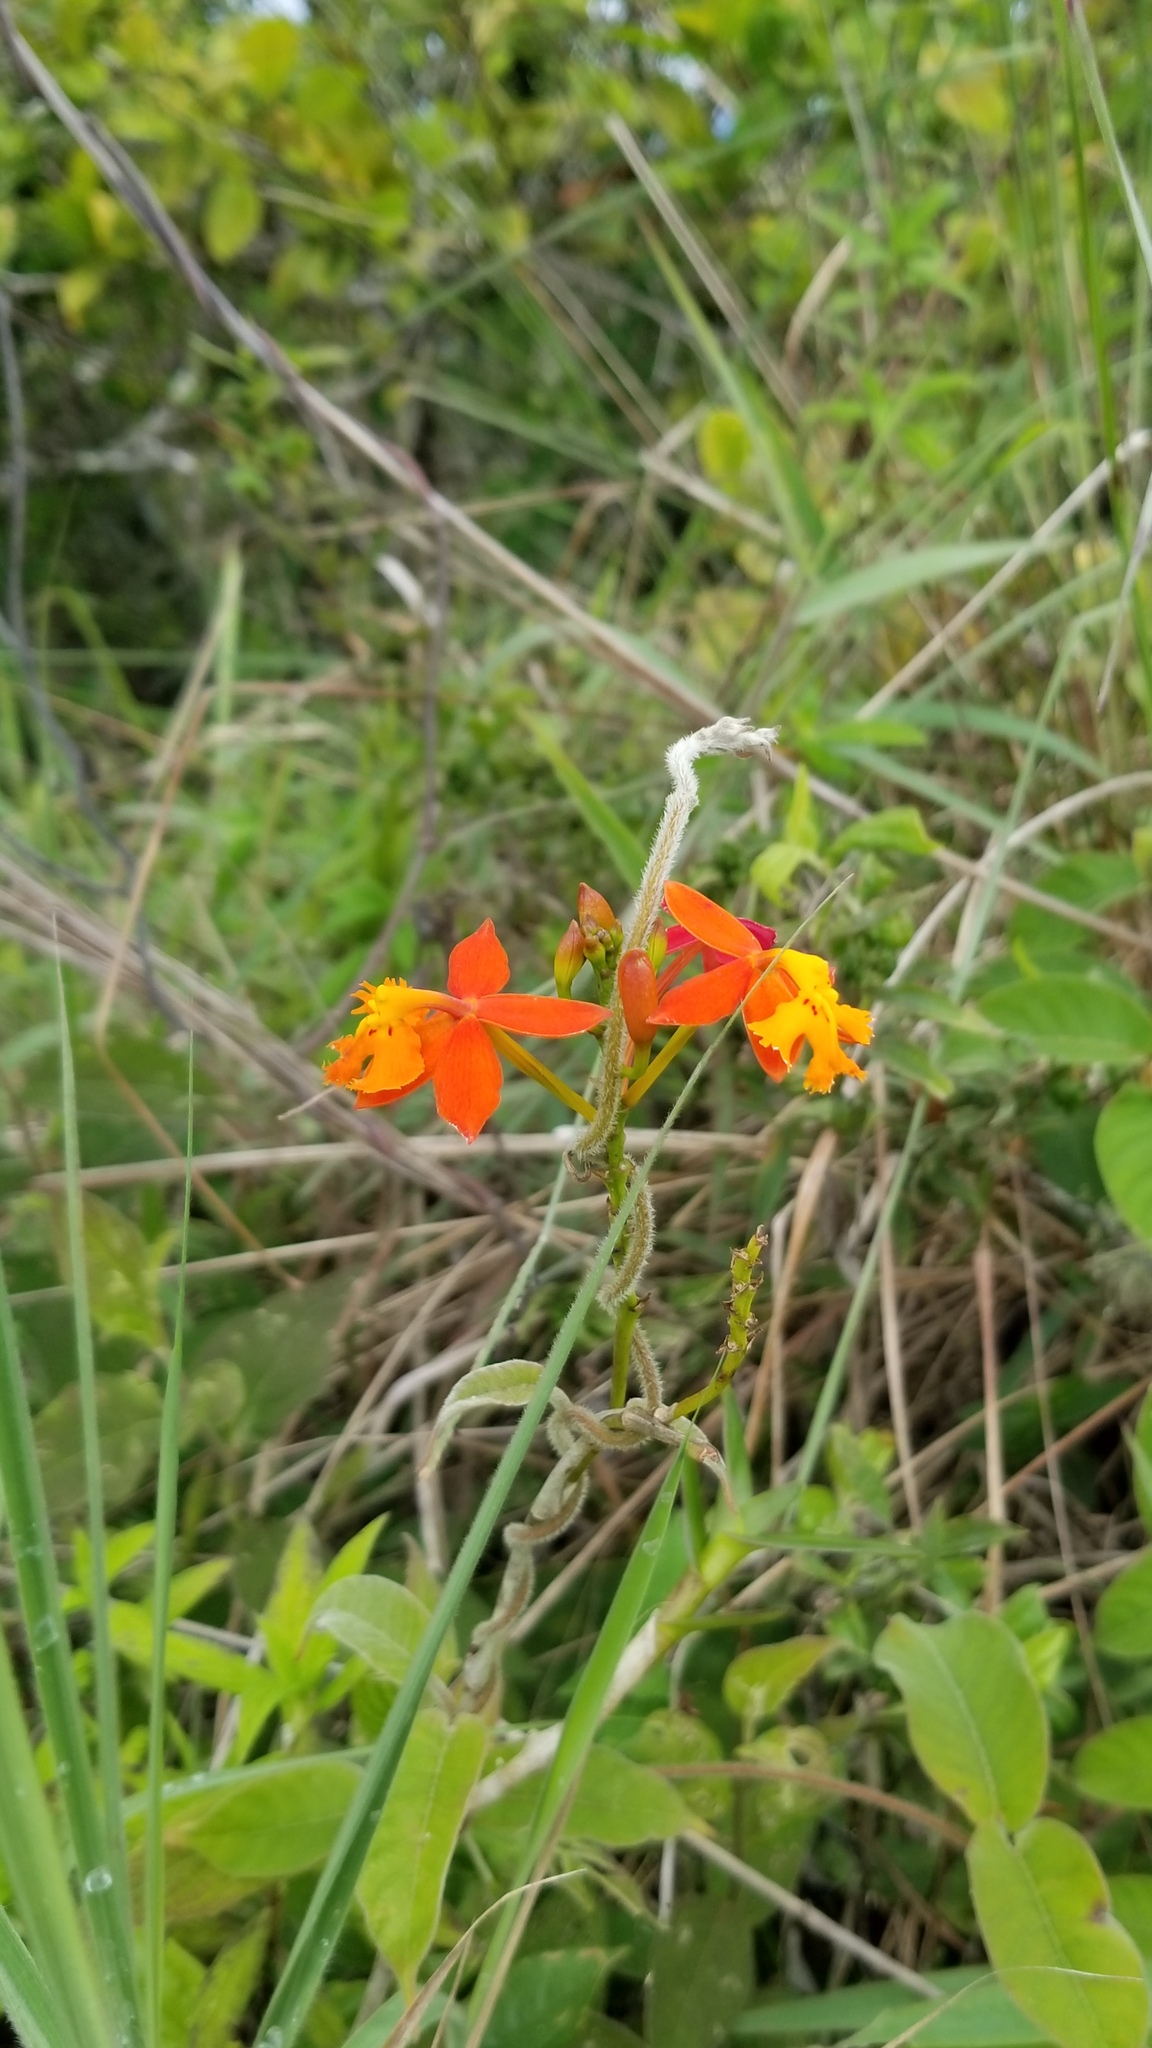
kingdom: Plantae
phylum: Tracheophyta
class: Liliopsida
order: Asparagales
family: Orchidaceae
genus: Epidendrum
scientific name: Epidendrum radicans
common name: Fire star orchid
